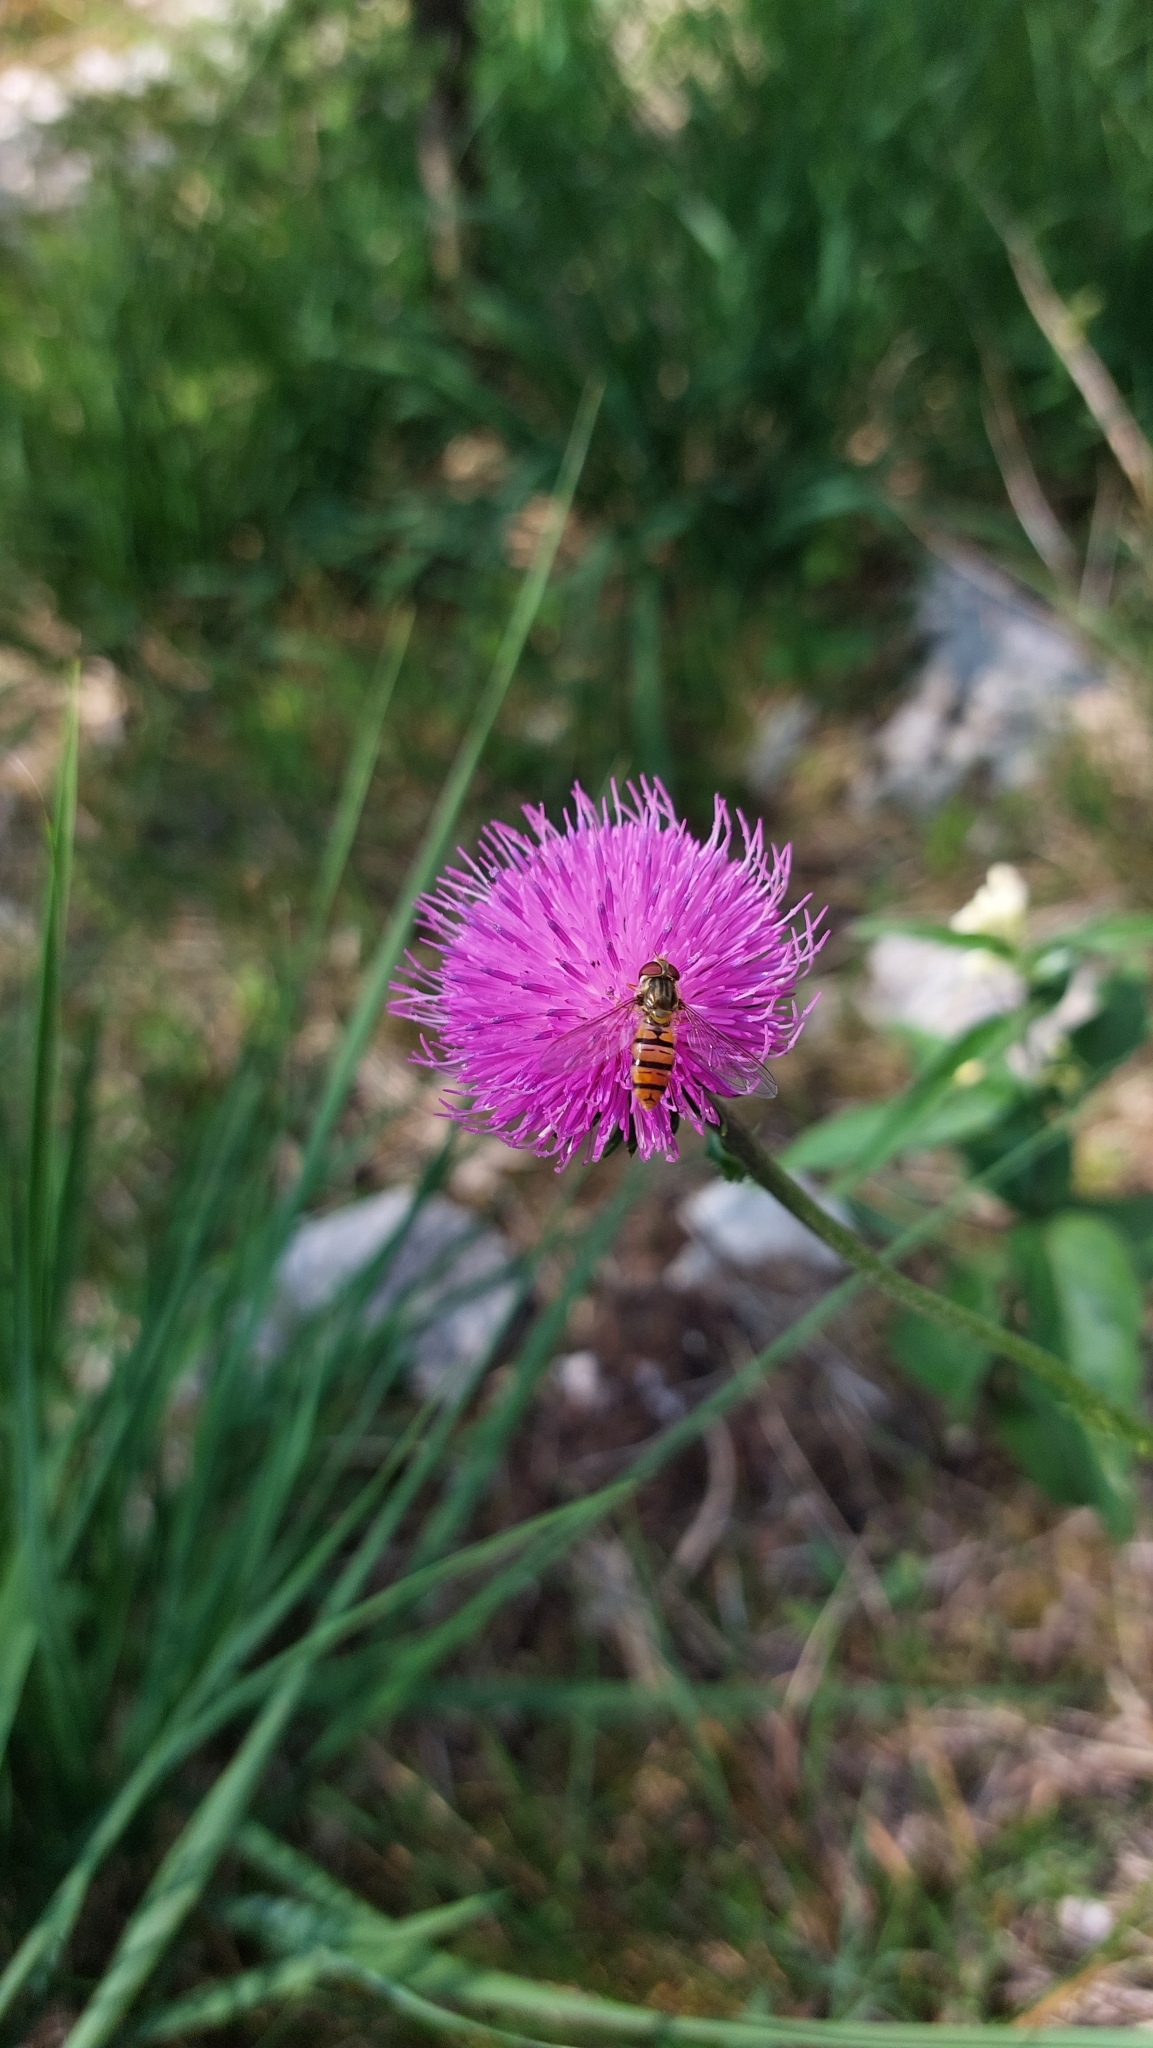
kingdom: Animalia
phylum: Arthropoda
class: Insecta
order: Diptera
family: Syrphidae
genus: Episyrphus
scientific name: Episyrphus balteatus
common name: Marmalade hoverfly
